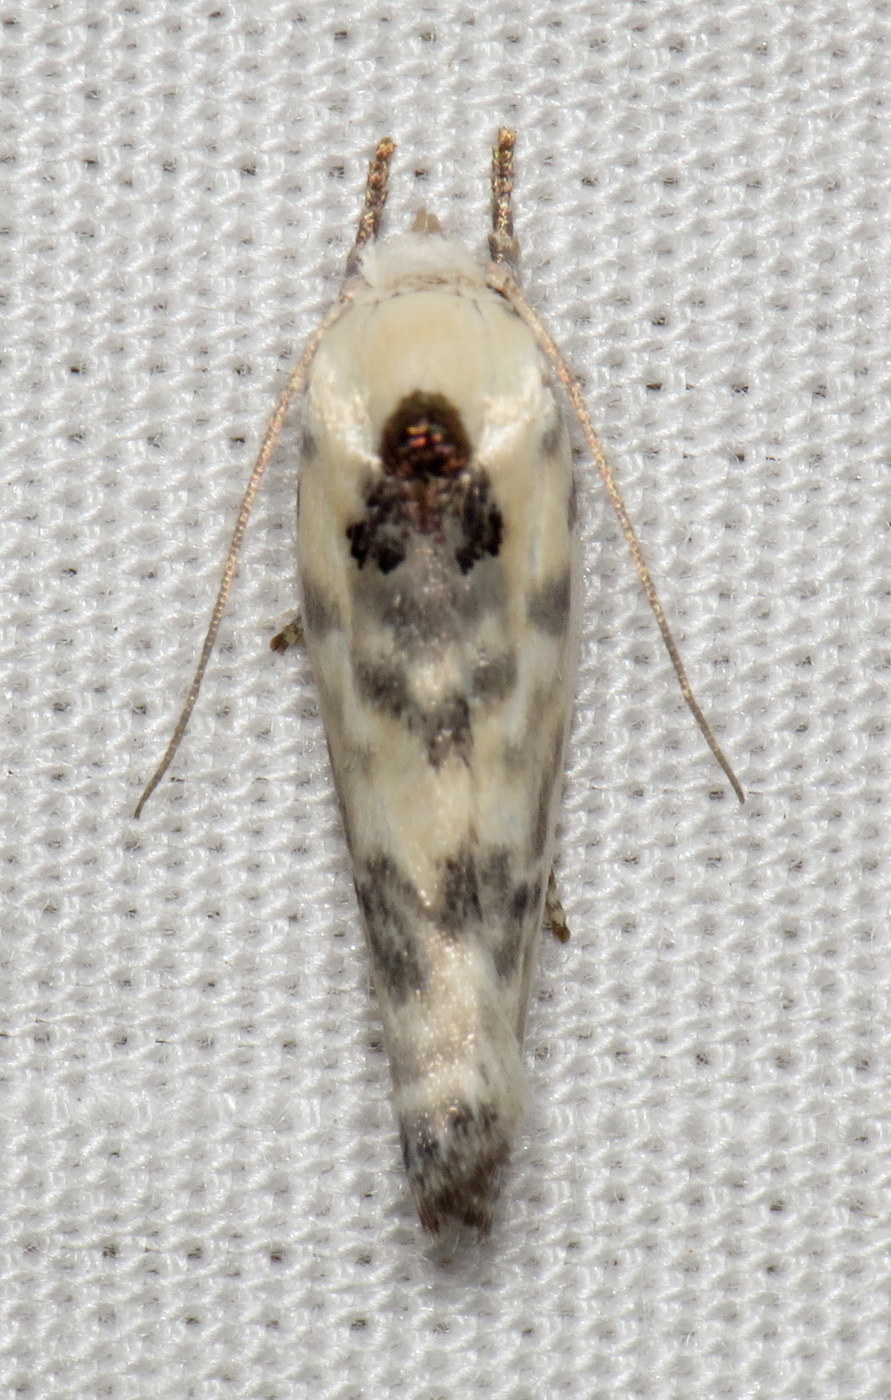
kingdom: Animalia
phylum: Arthropoda
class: Insecta
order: Lepidoptera
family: Depressariidae
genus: Antaeotricha
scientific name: Antaeotricha leucillana
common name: Pale gray bird-dropping moth
